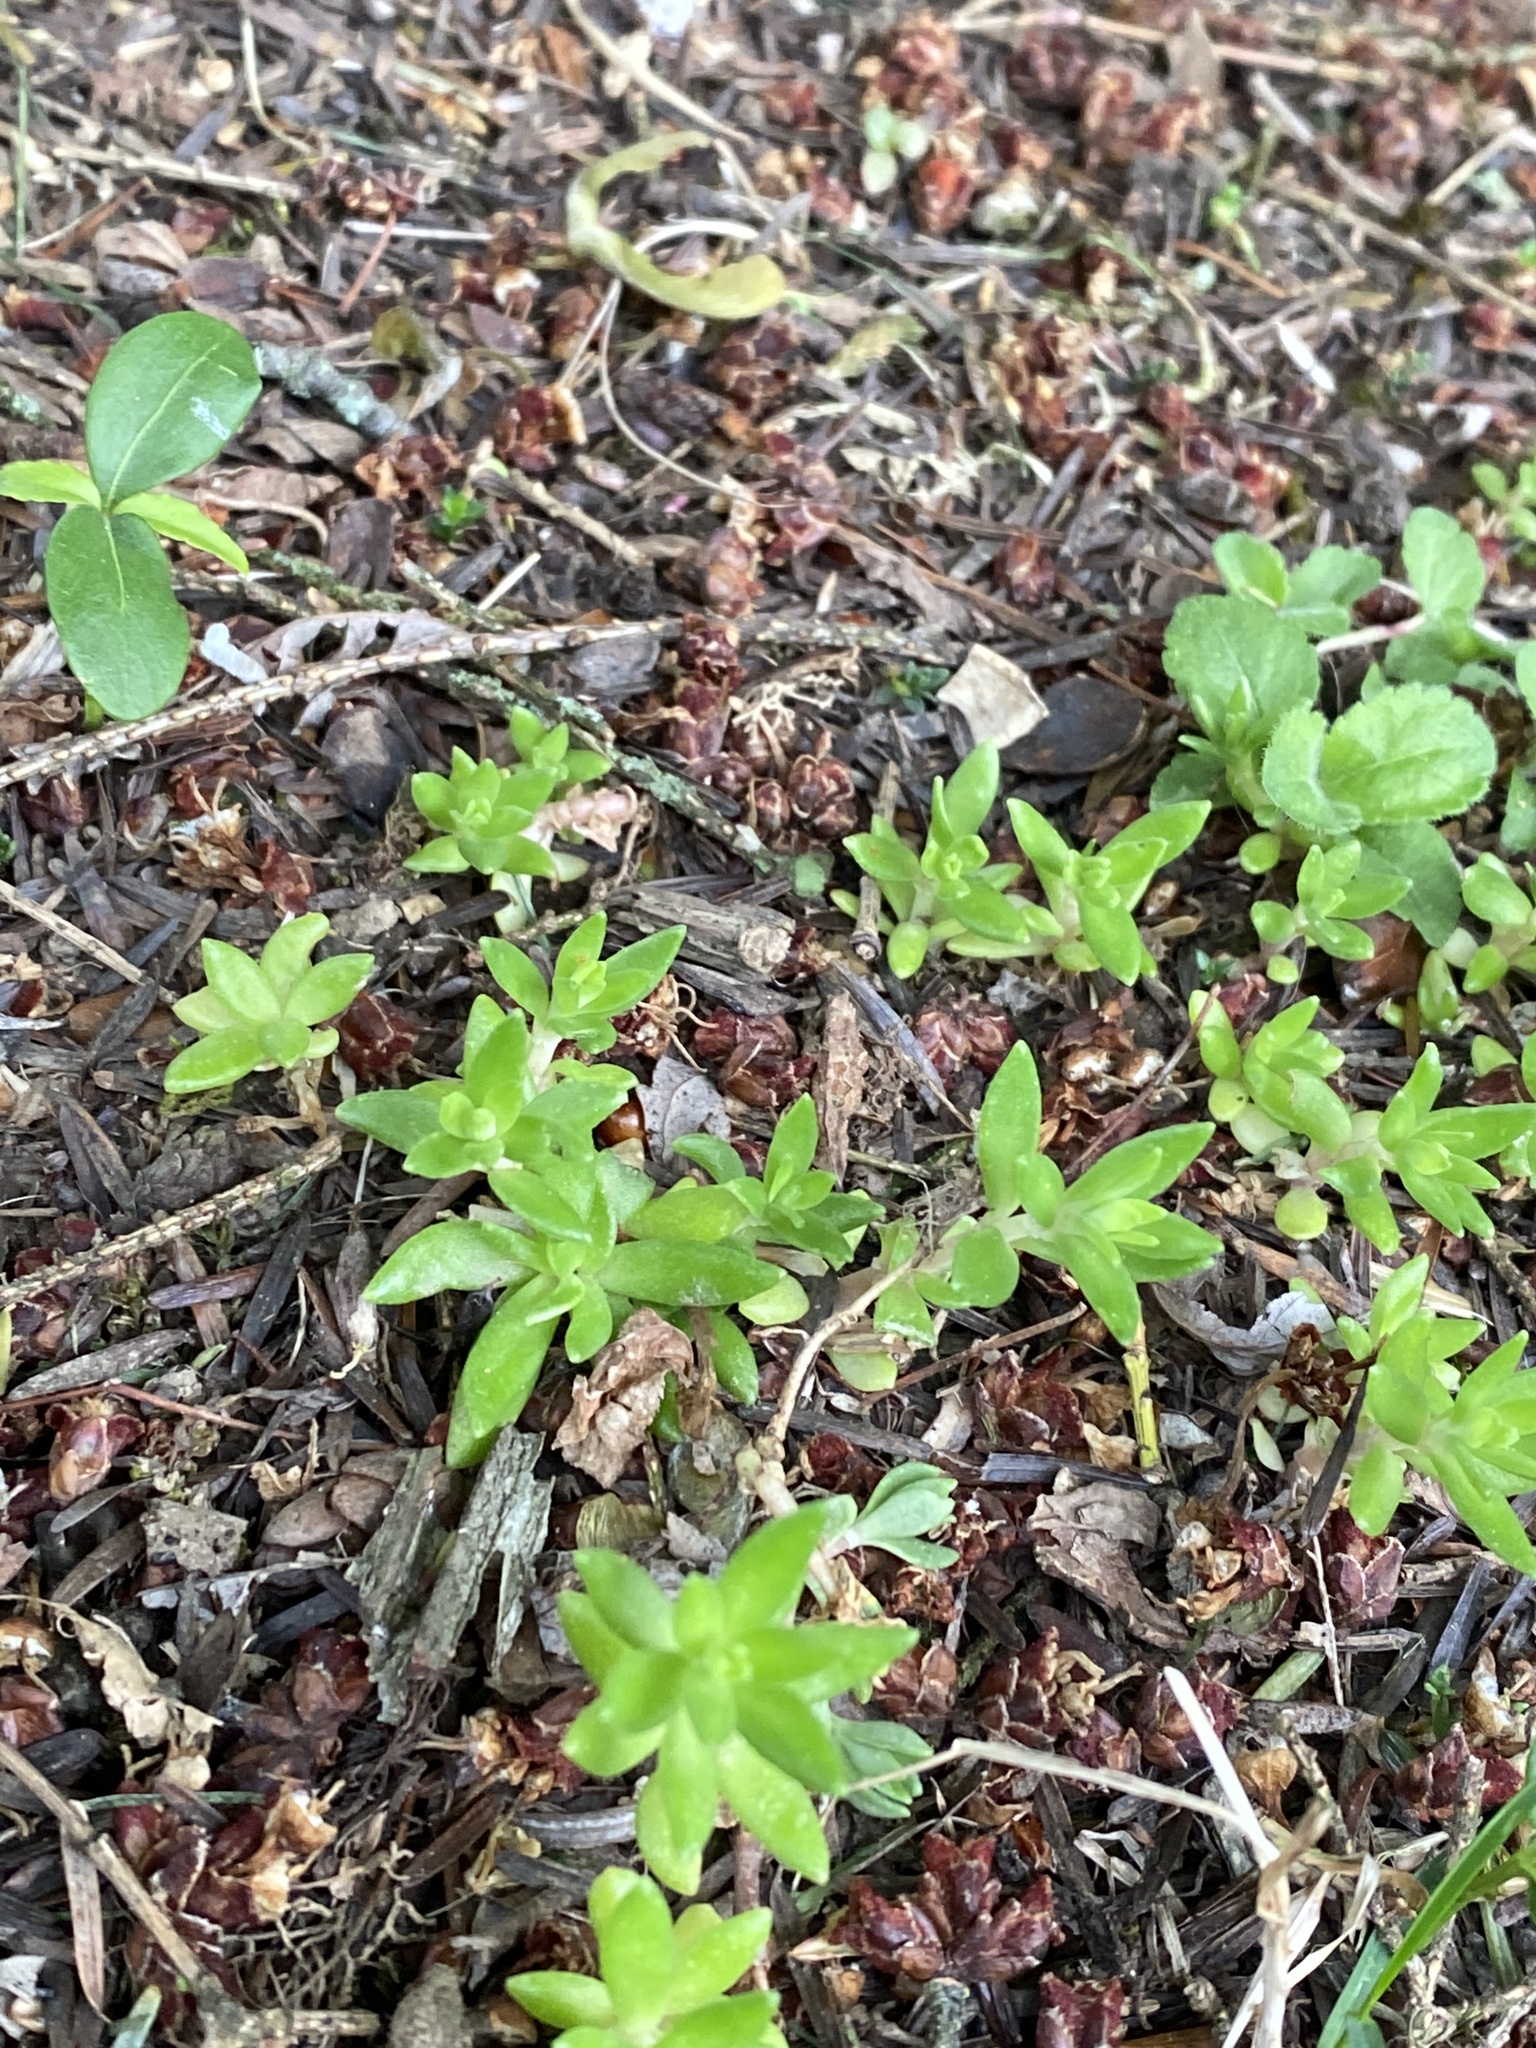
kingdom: Plantae
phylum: Tracheophyta
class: Magnoliopsida
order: Saxifragales
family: Crassulaceae
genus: Sedum
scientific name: Sedum sarmentosum
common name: Stringy stonecrop
